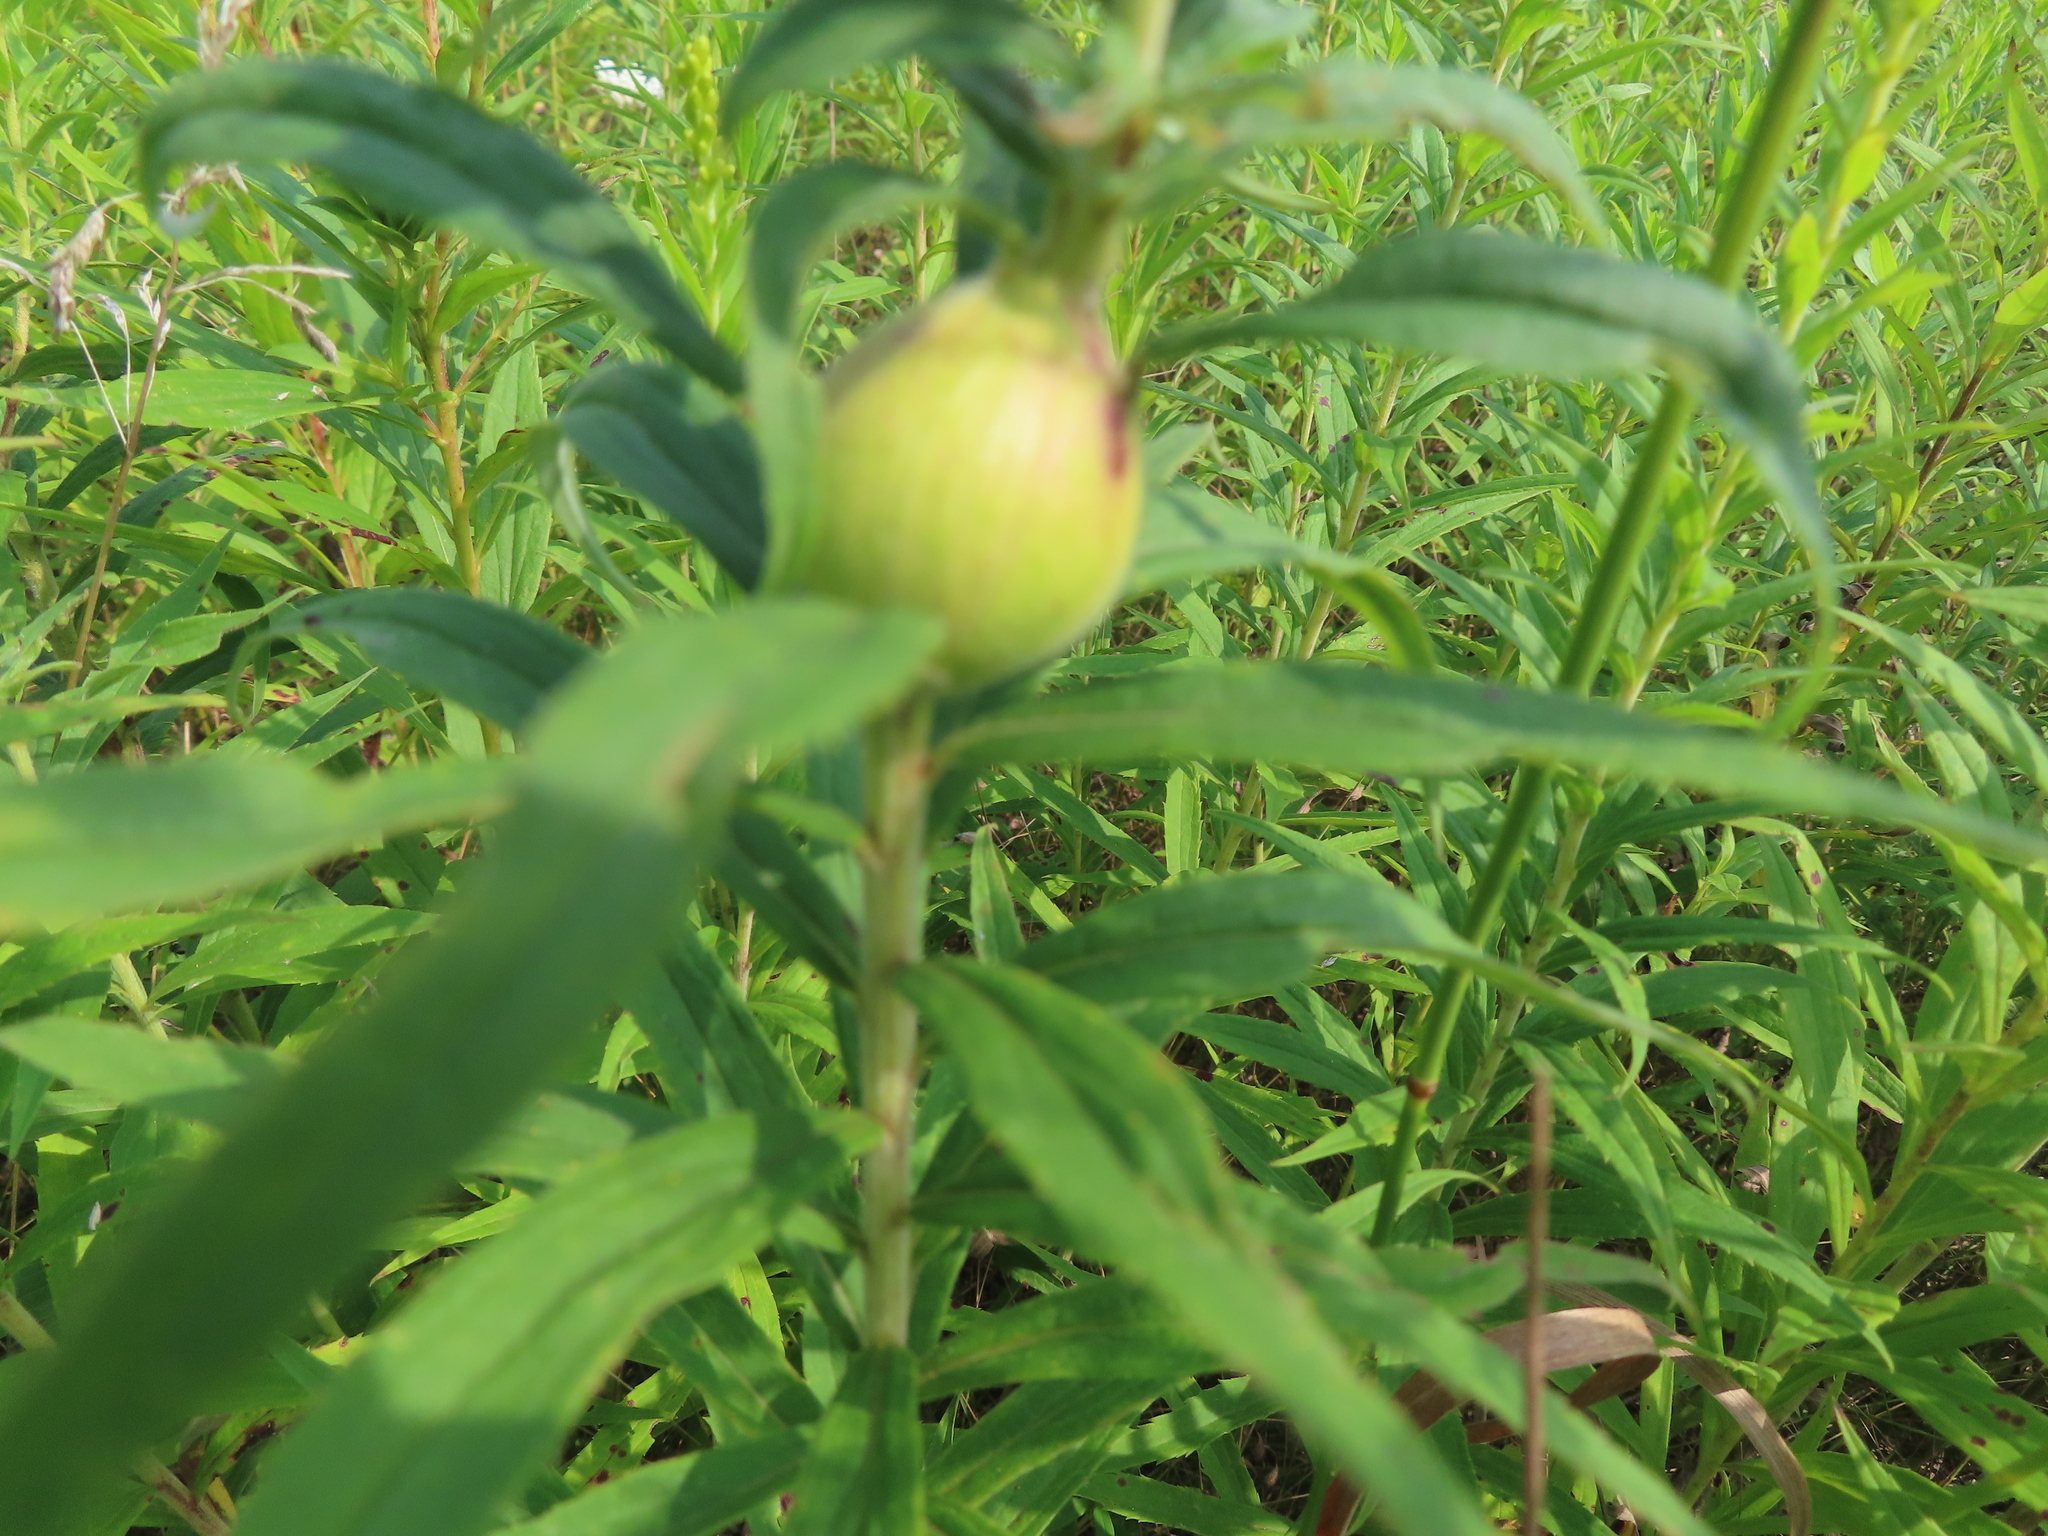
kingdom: Animalia
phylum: Arthropoda
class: Insecta
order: Diptera
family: Tephritidae
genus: Eurosta
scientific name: Eurosta solidaginis
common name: Goldenrod gall fly
